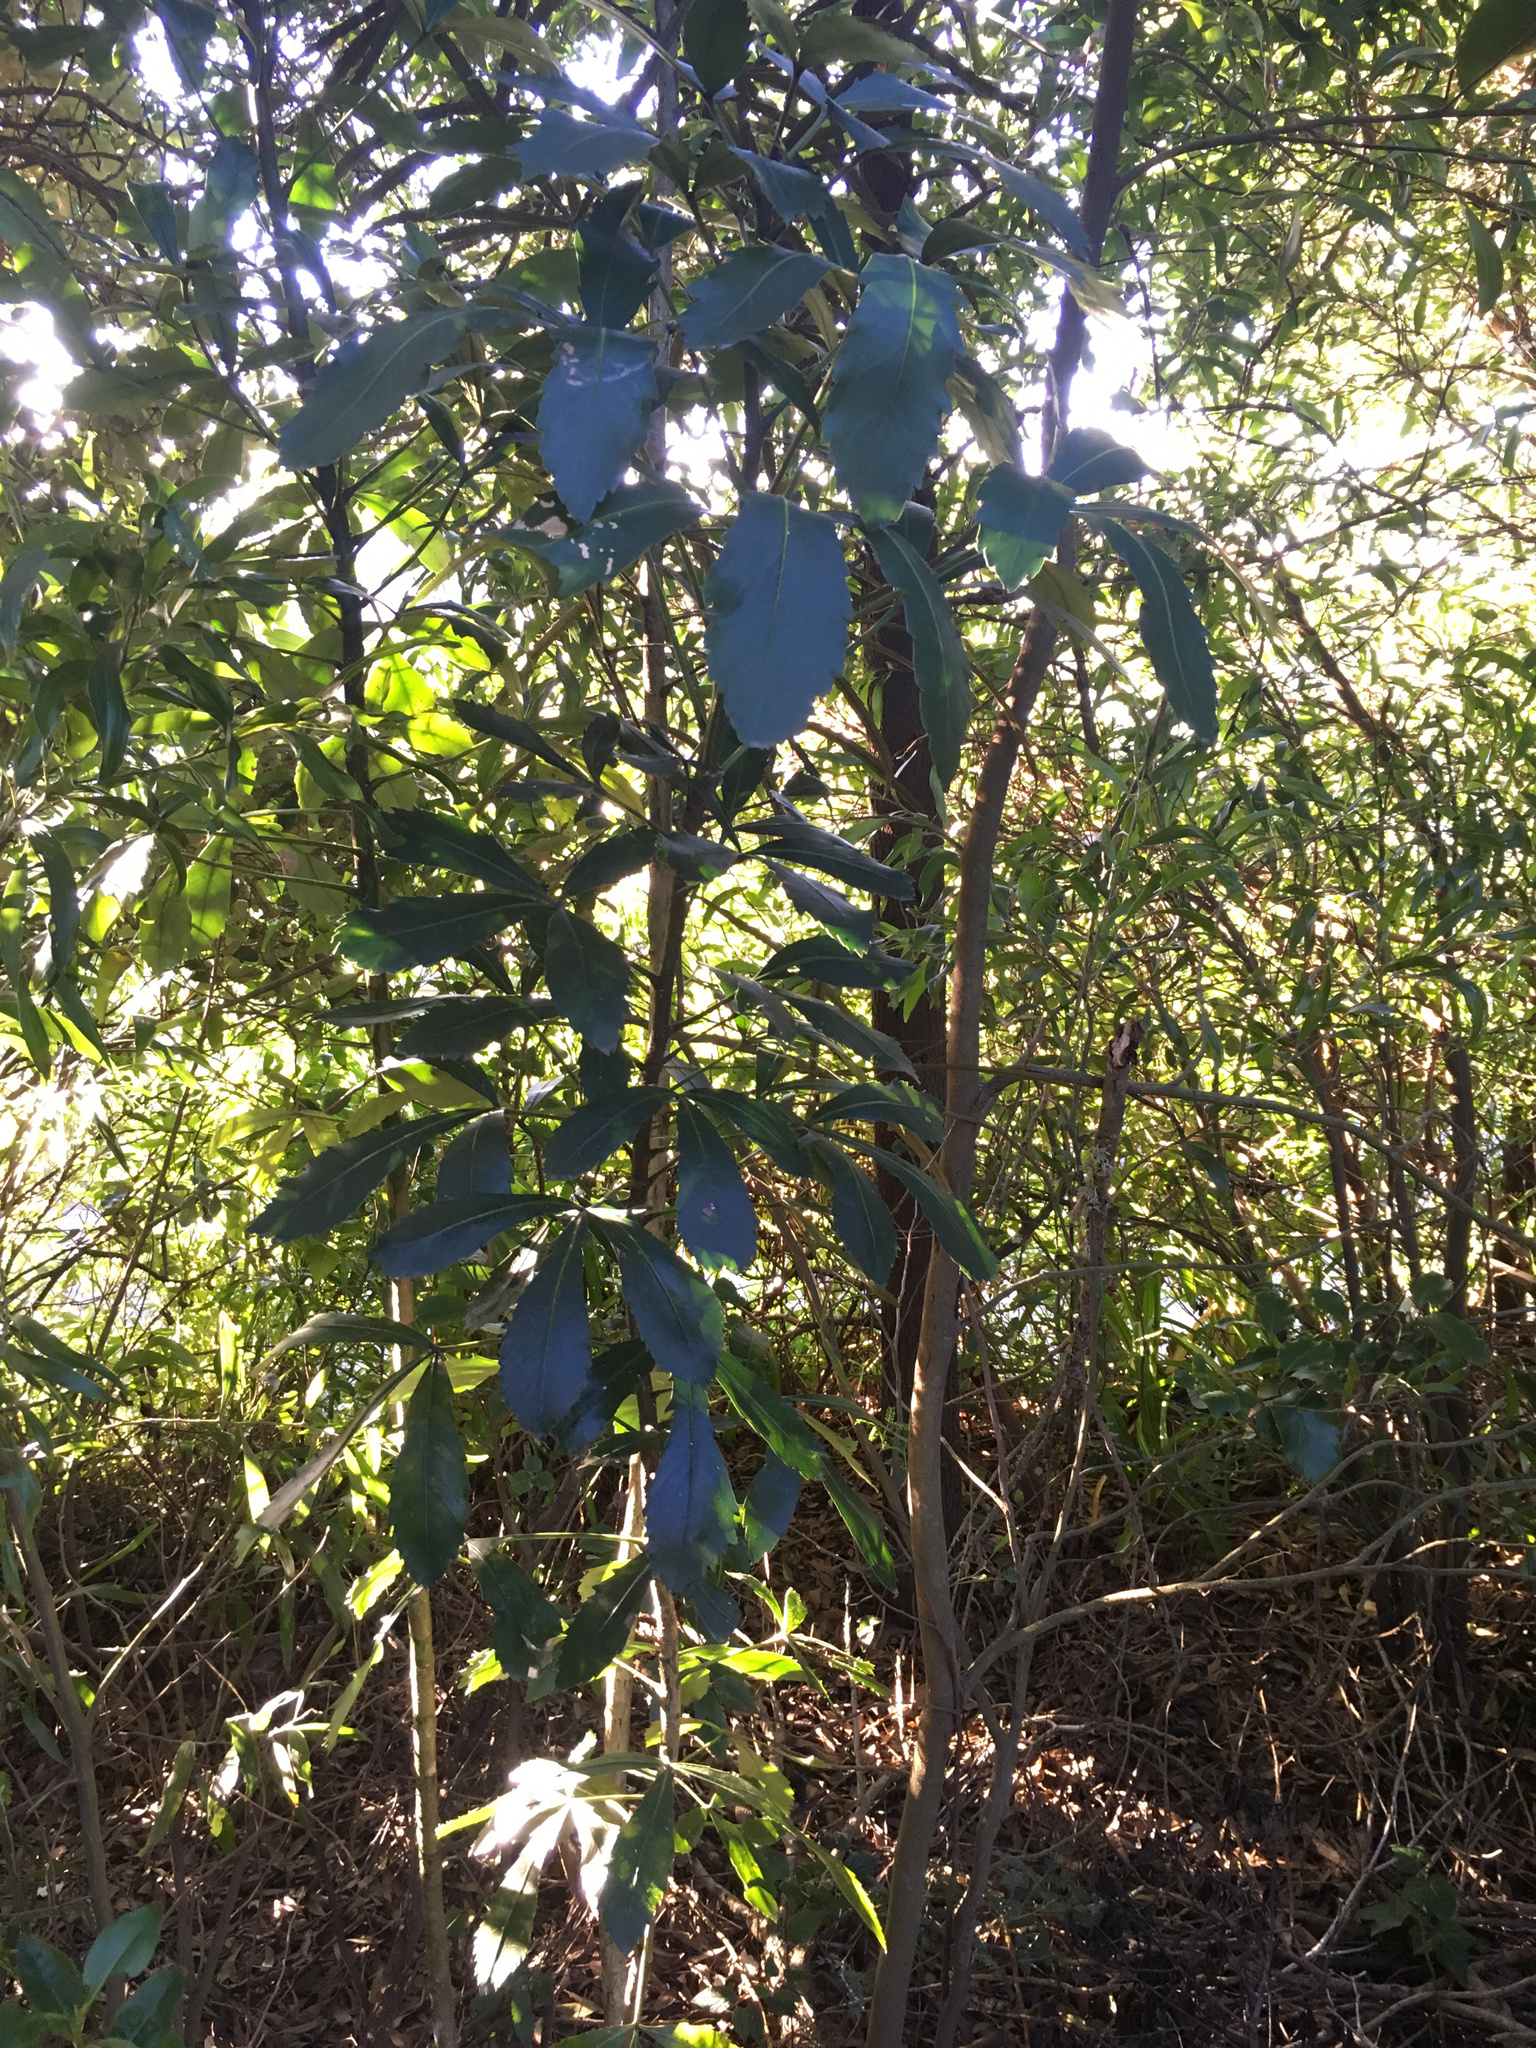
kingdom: Plantae
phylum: Tracheophyta
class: Magnoliopsida
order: Apiales
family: Araliaceae
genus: Pseudopanax
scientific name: Pseudopanax
